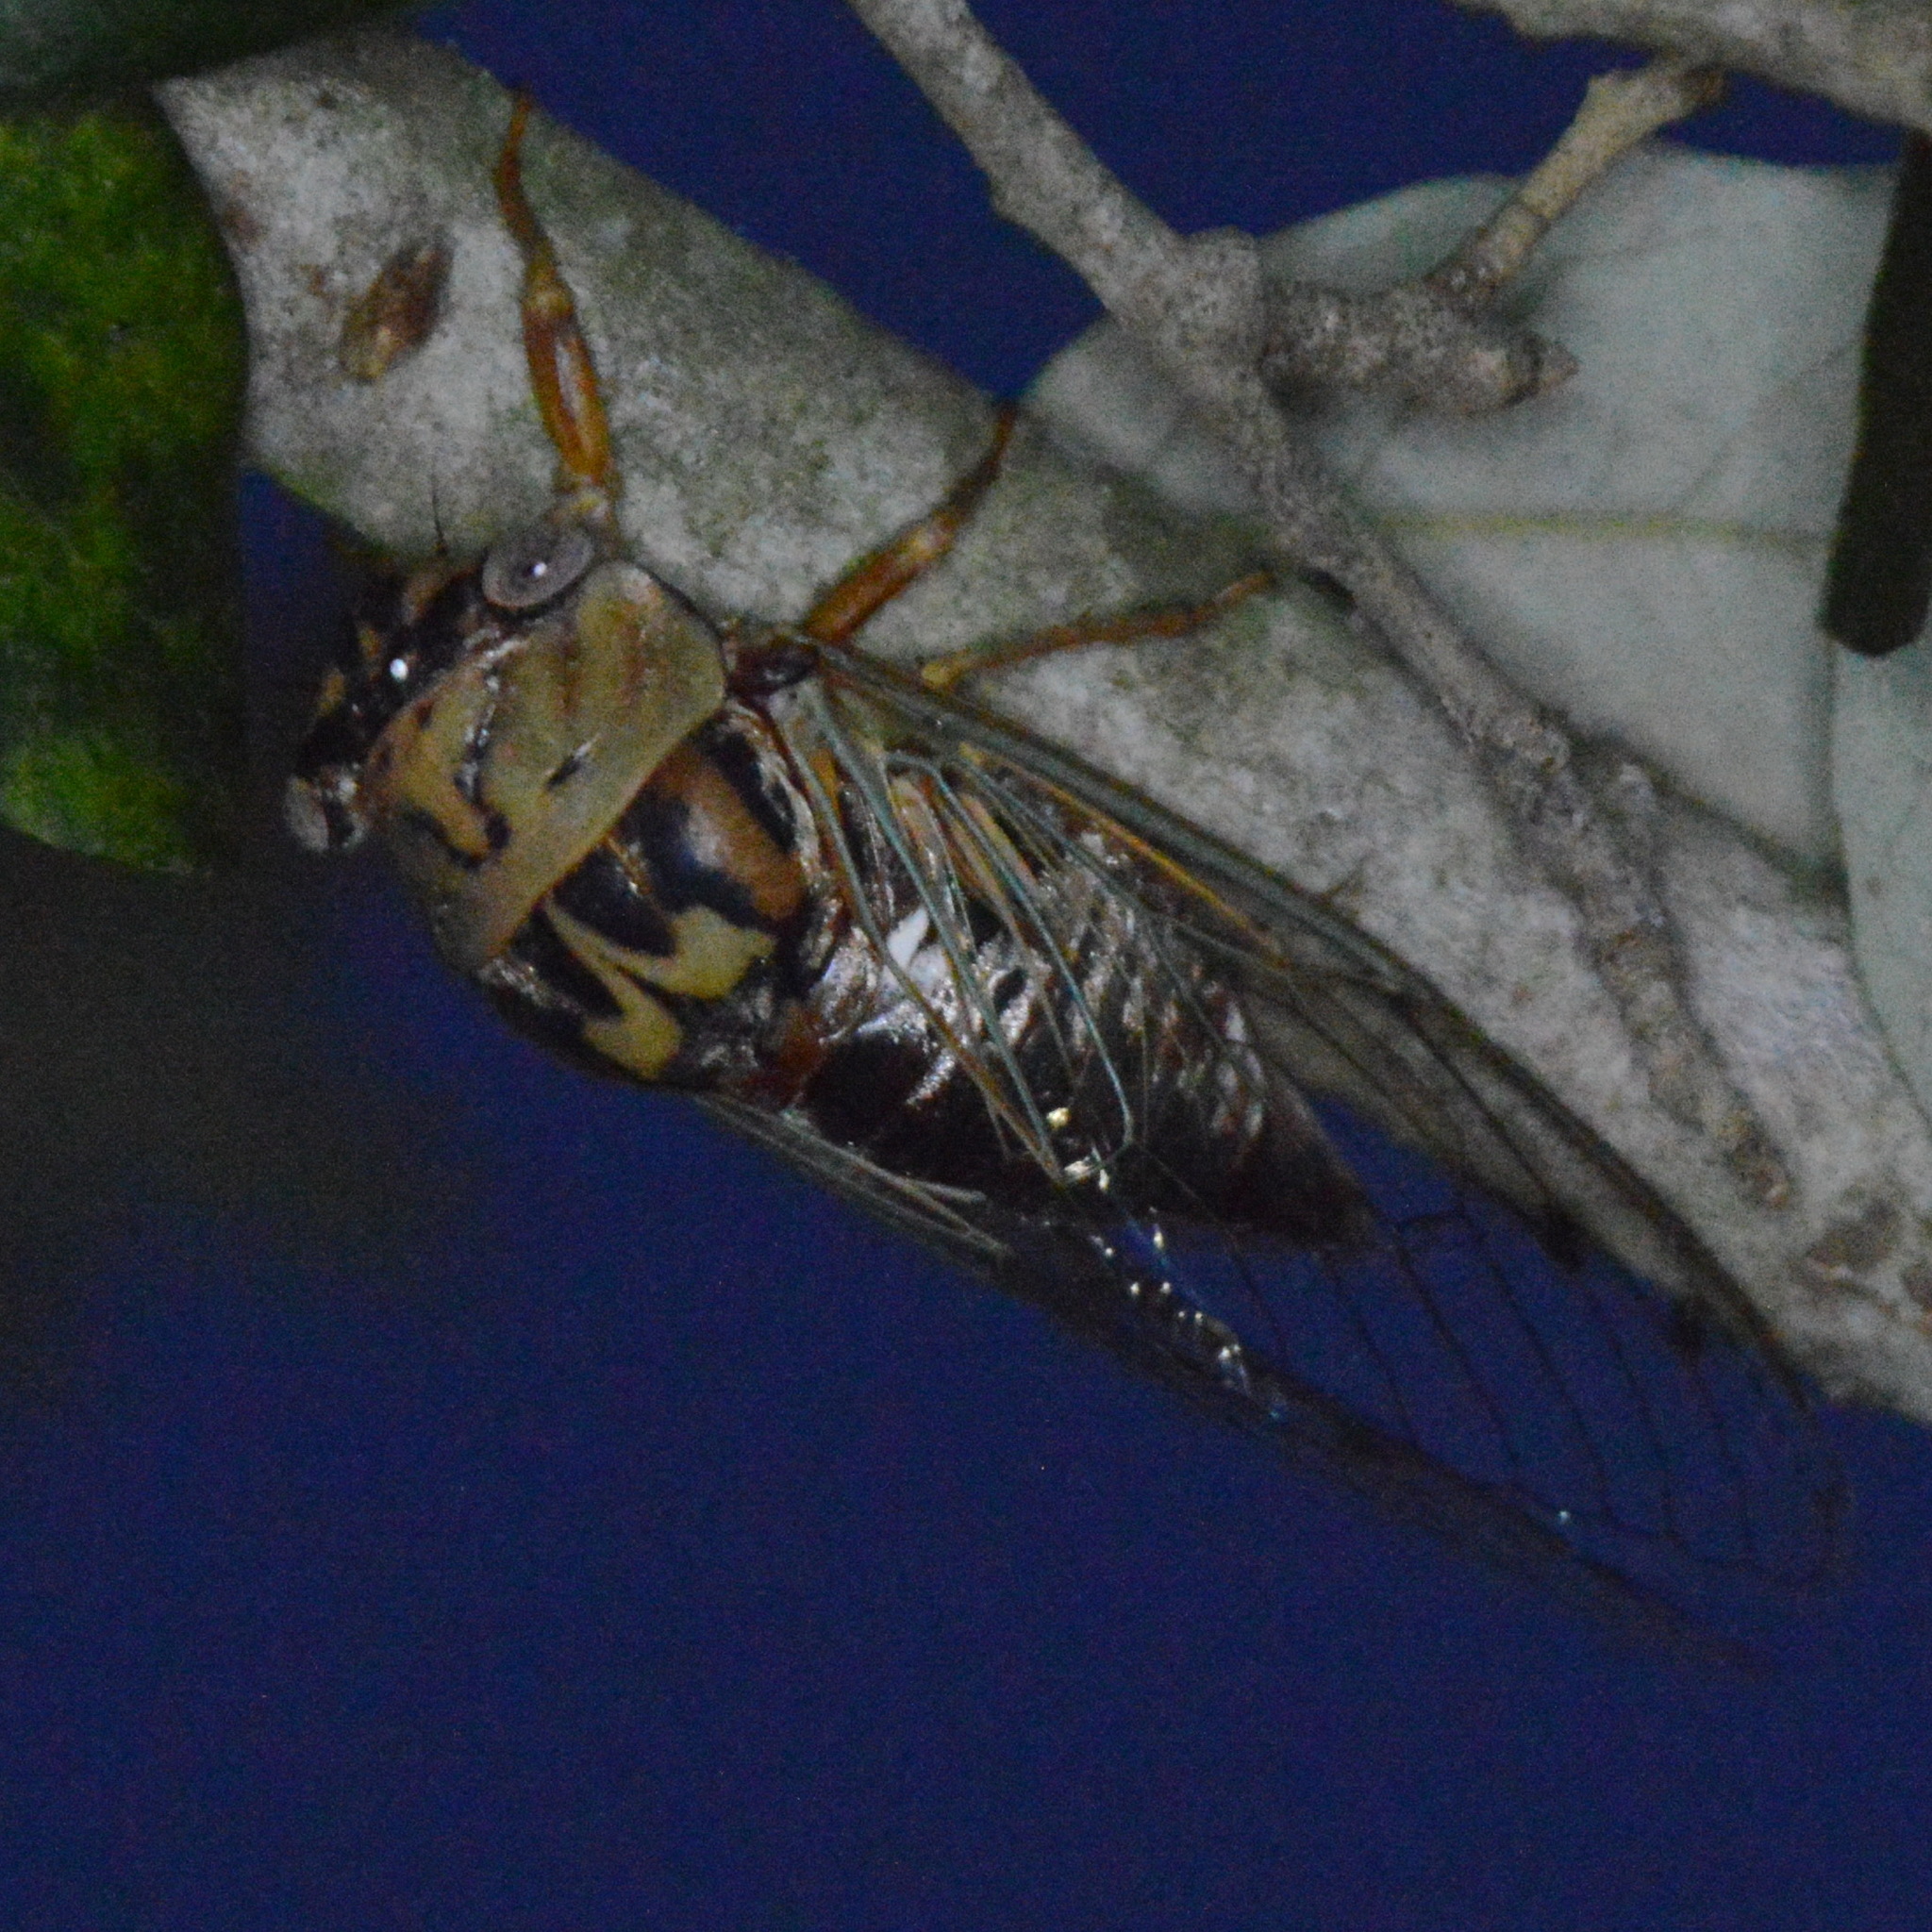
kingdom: Animalia
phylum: Arthropoda
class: Insecta
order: Hemiptera
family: Cicadidae
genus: Megatibicen
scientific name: Megatibicen resh
